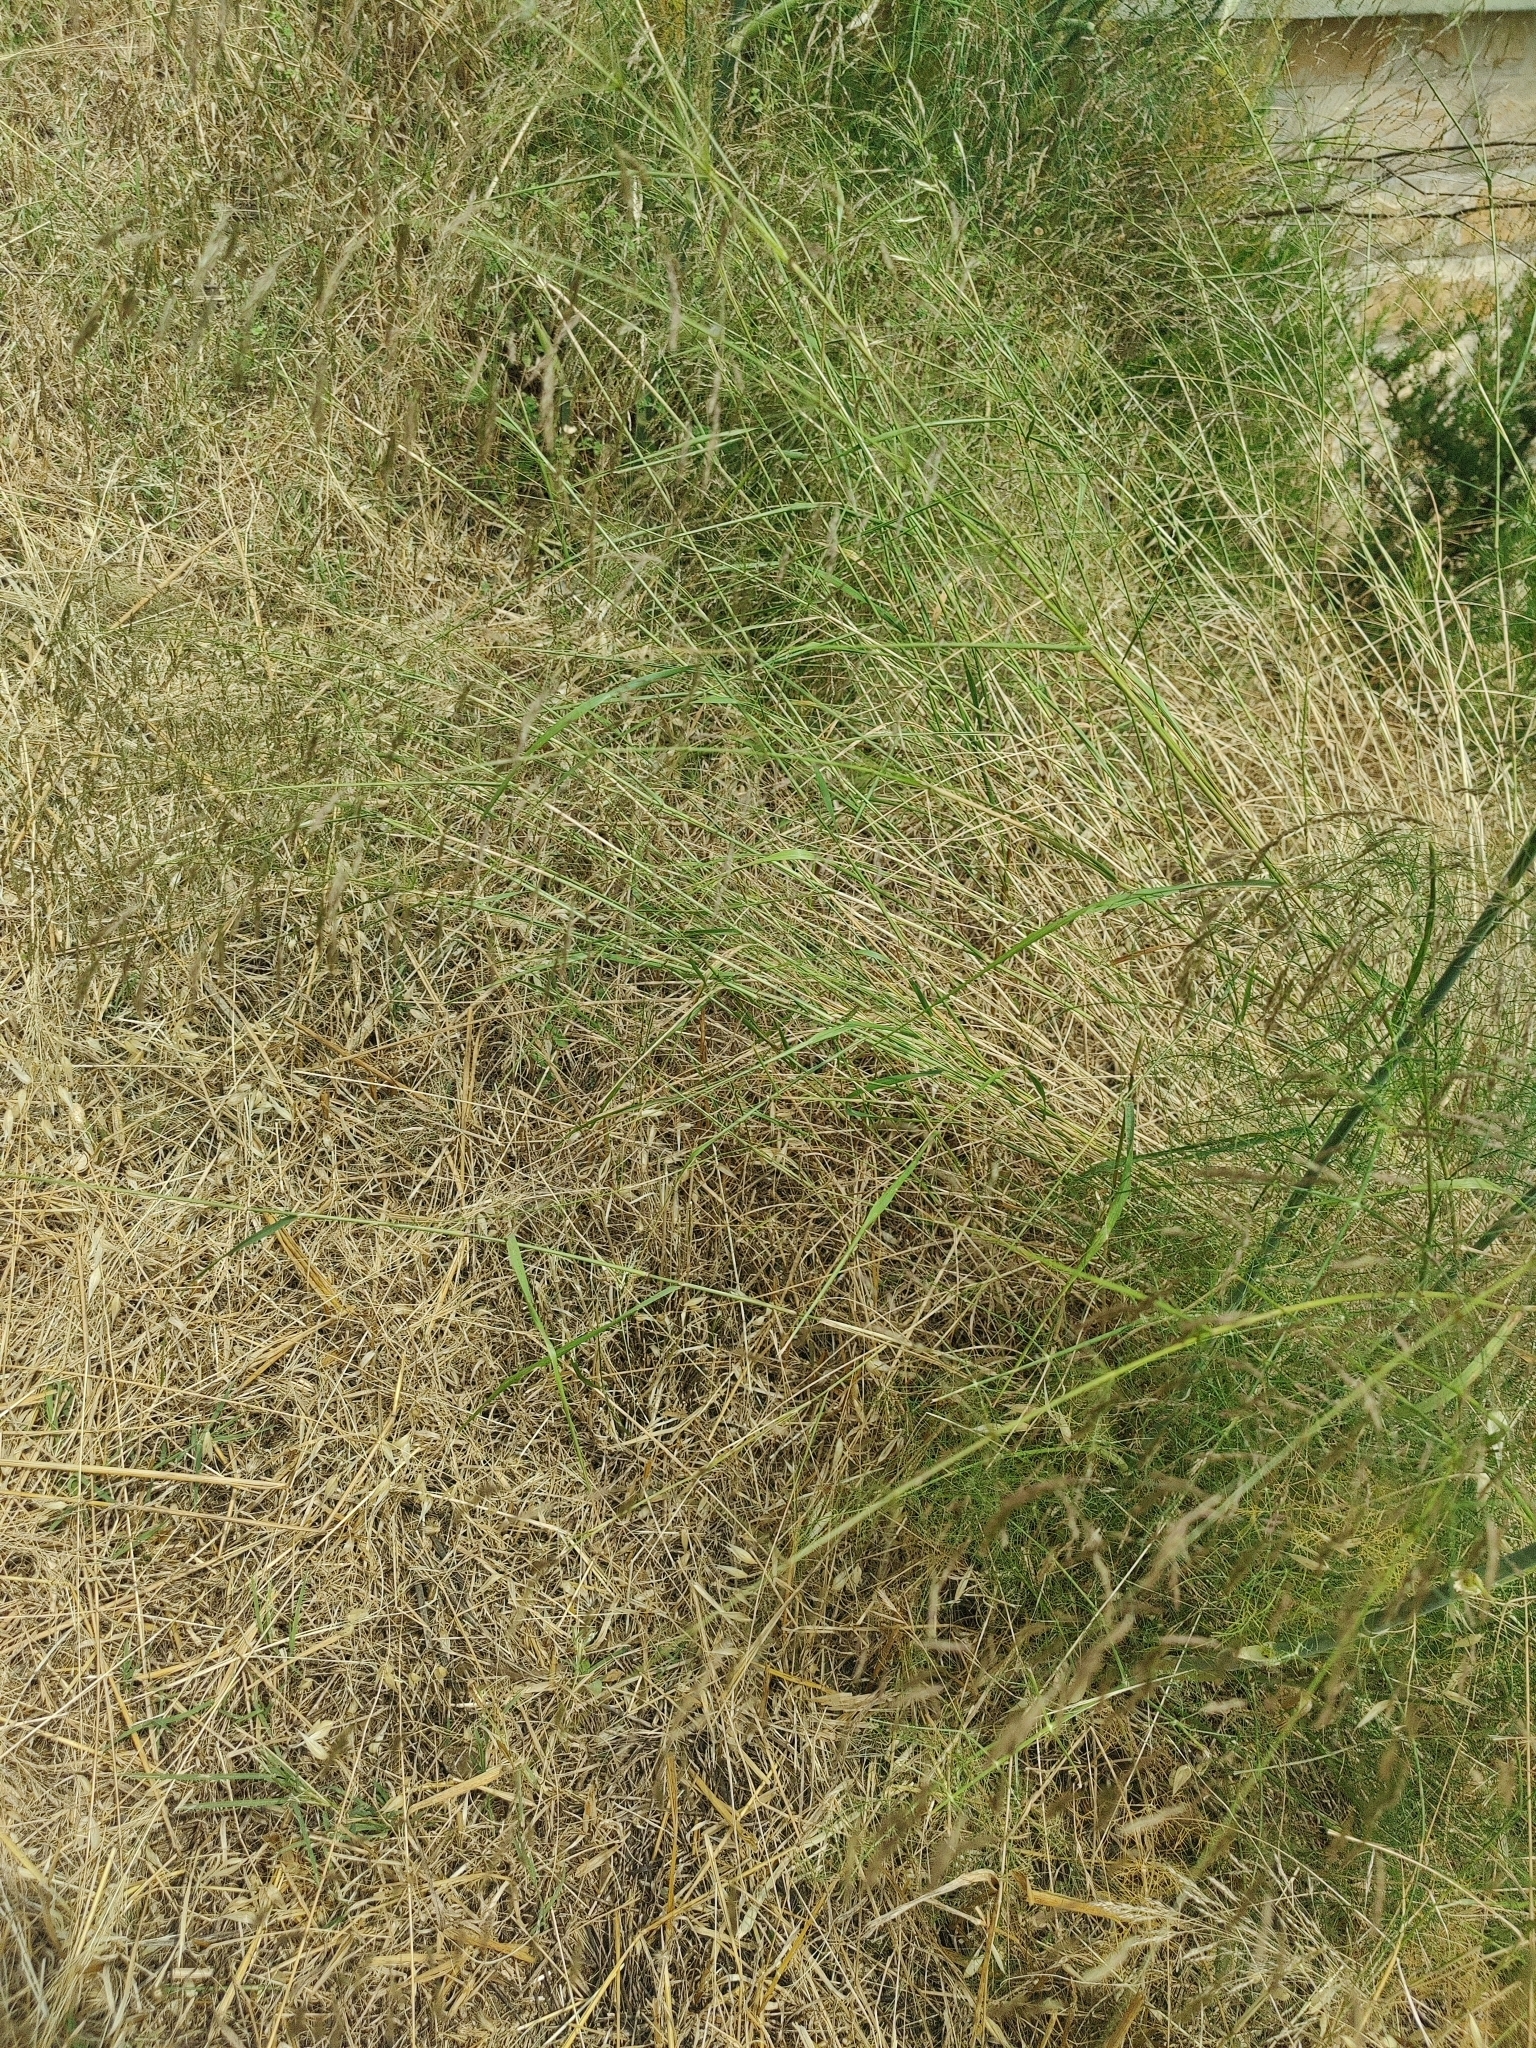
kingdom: Plantae
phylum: Tracheophyta
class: Magnoliopsida
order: Apiales
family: Apiaceae
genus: Foeniculum
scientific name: Foeniculum vulgare
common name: Fennel
